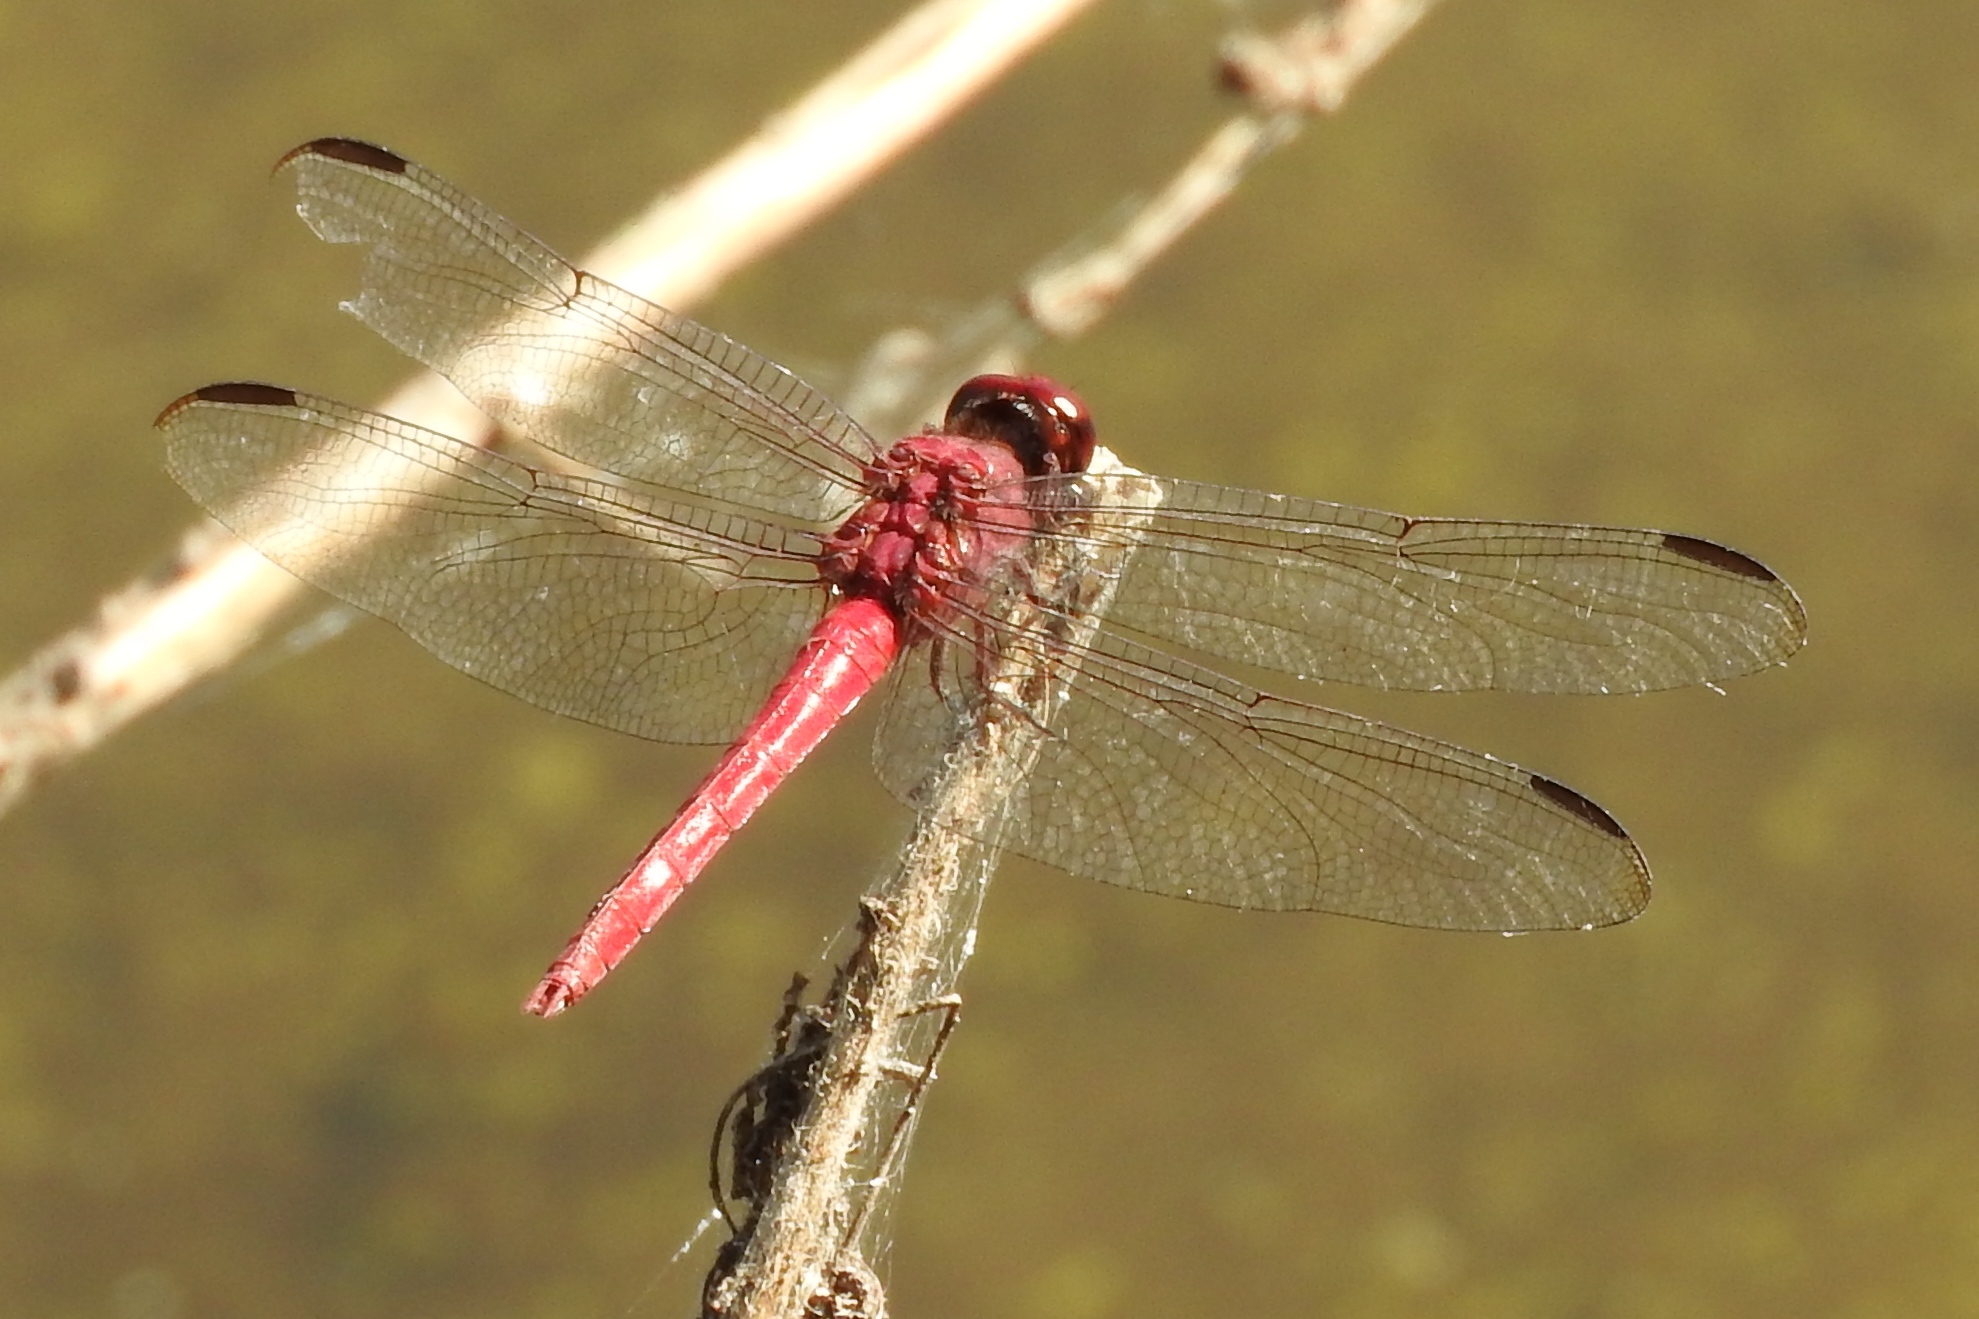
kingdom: Animalia
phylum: Arthropoda
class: Insecta
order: Odonata
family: Libellulidae
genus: Orthemis
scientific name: Orthemis
